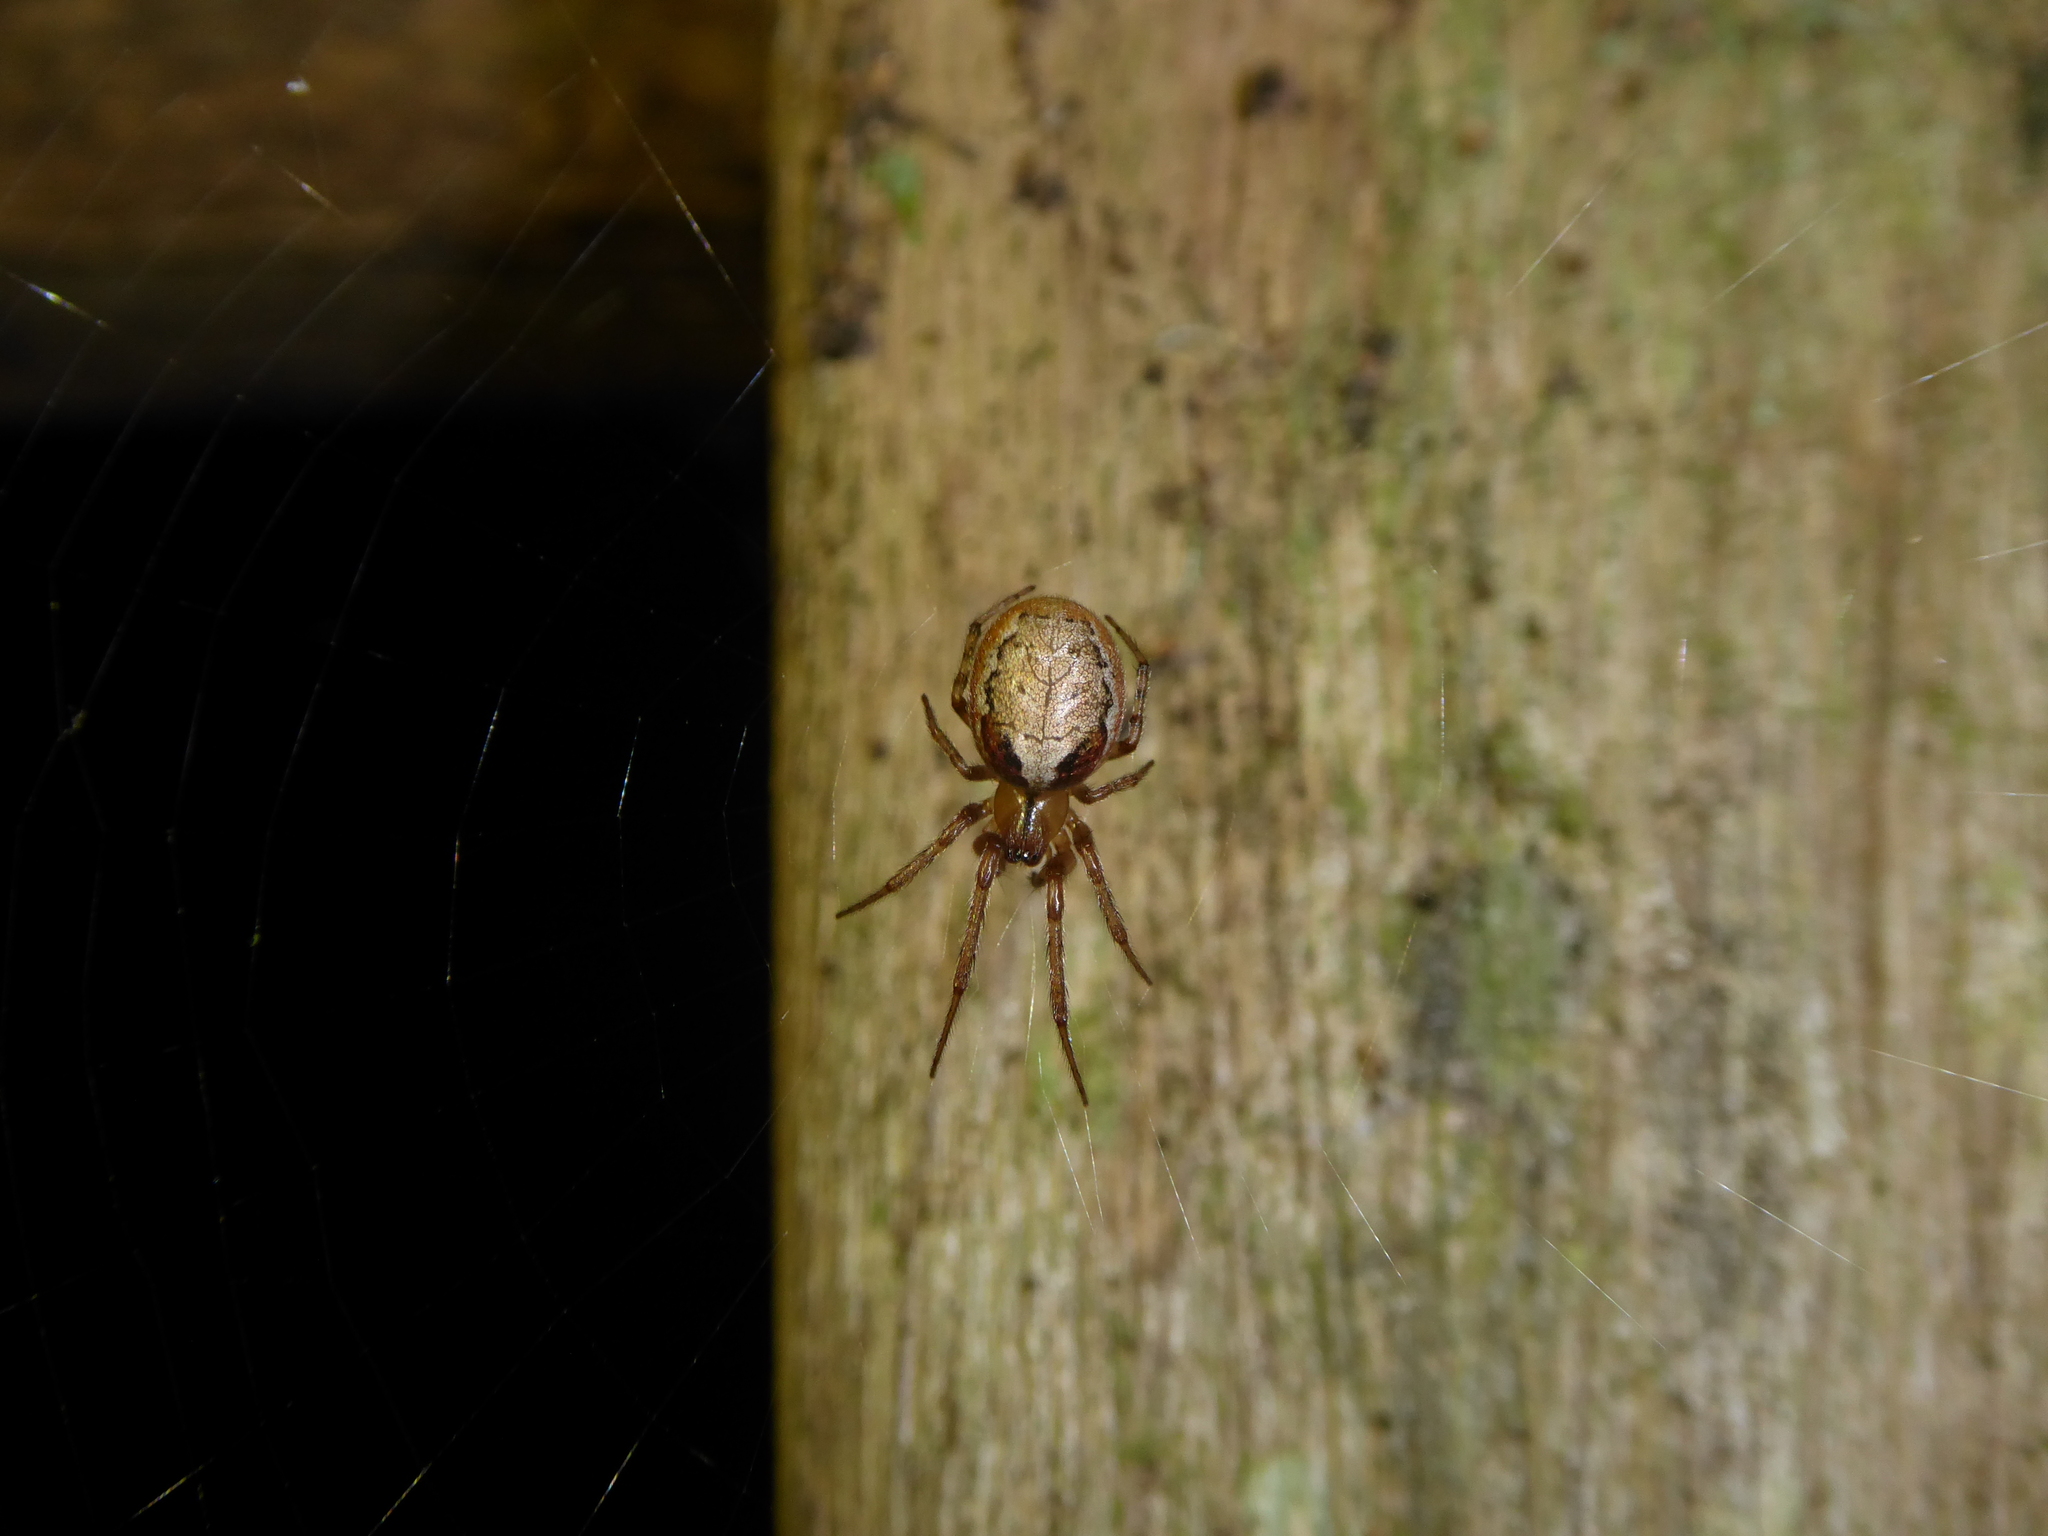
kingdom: Animalia
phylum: Arthropoda
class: Arachnida
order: Araneae
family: Araneidae
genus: Zygiella
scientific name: Zygiella
